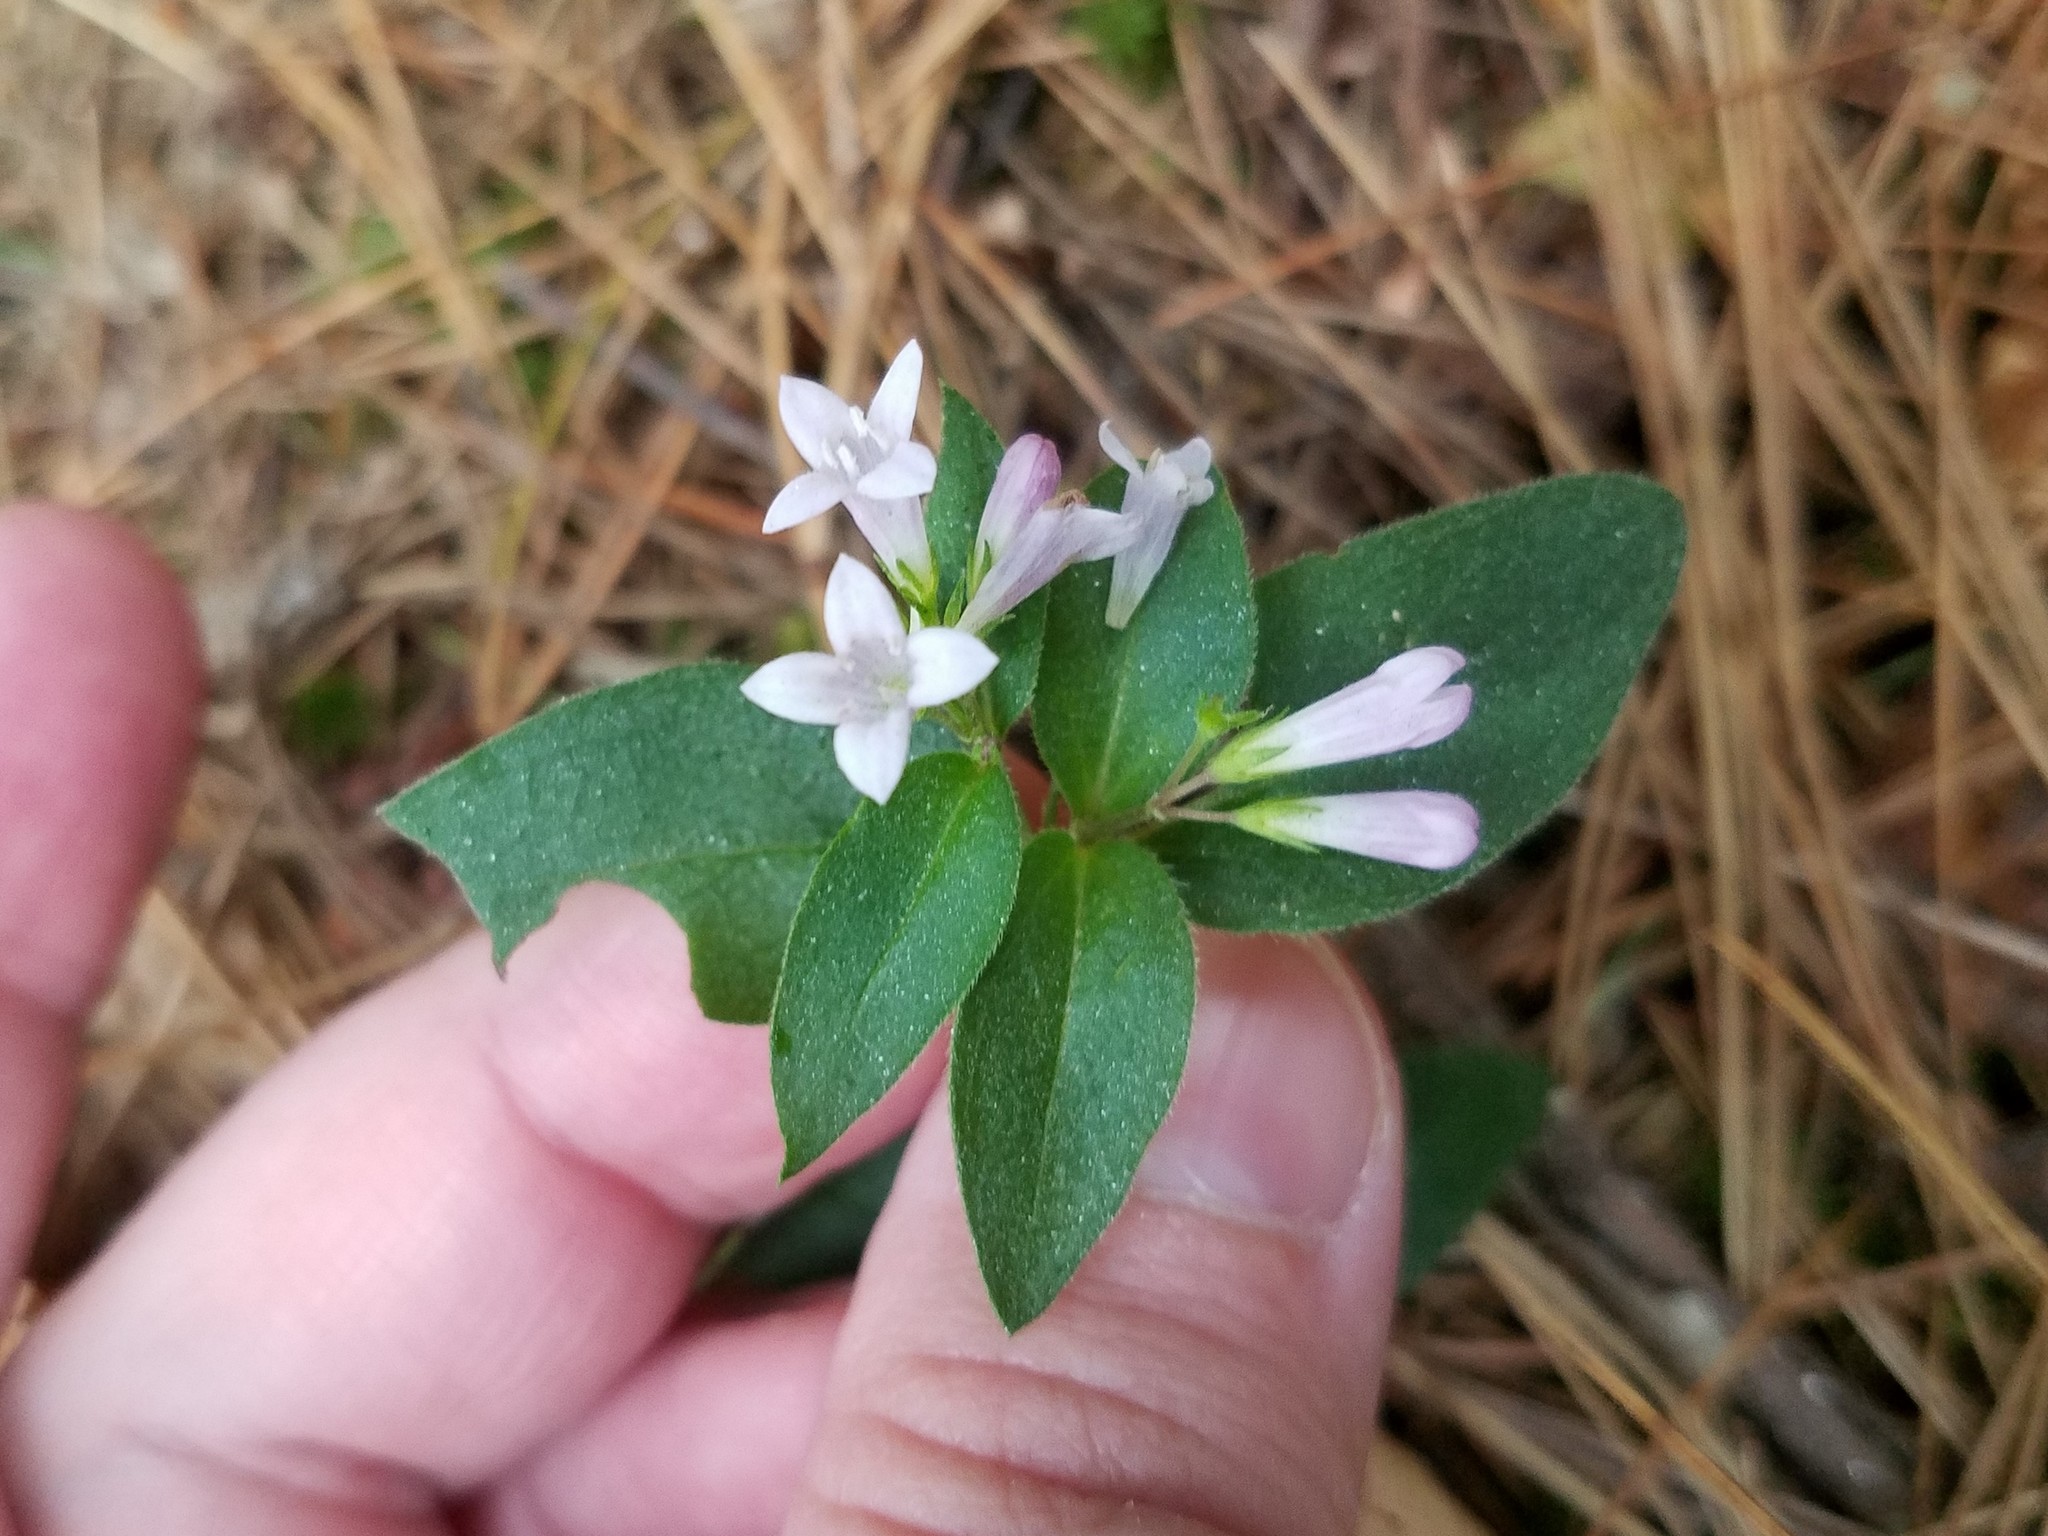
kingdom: Plantae
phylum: Tracheophyta
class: Magnoliopsida
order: Gentianales
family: Rubiaceae
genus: Houstonia
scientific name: Houstonia purpurea
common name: Summer bluet
